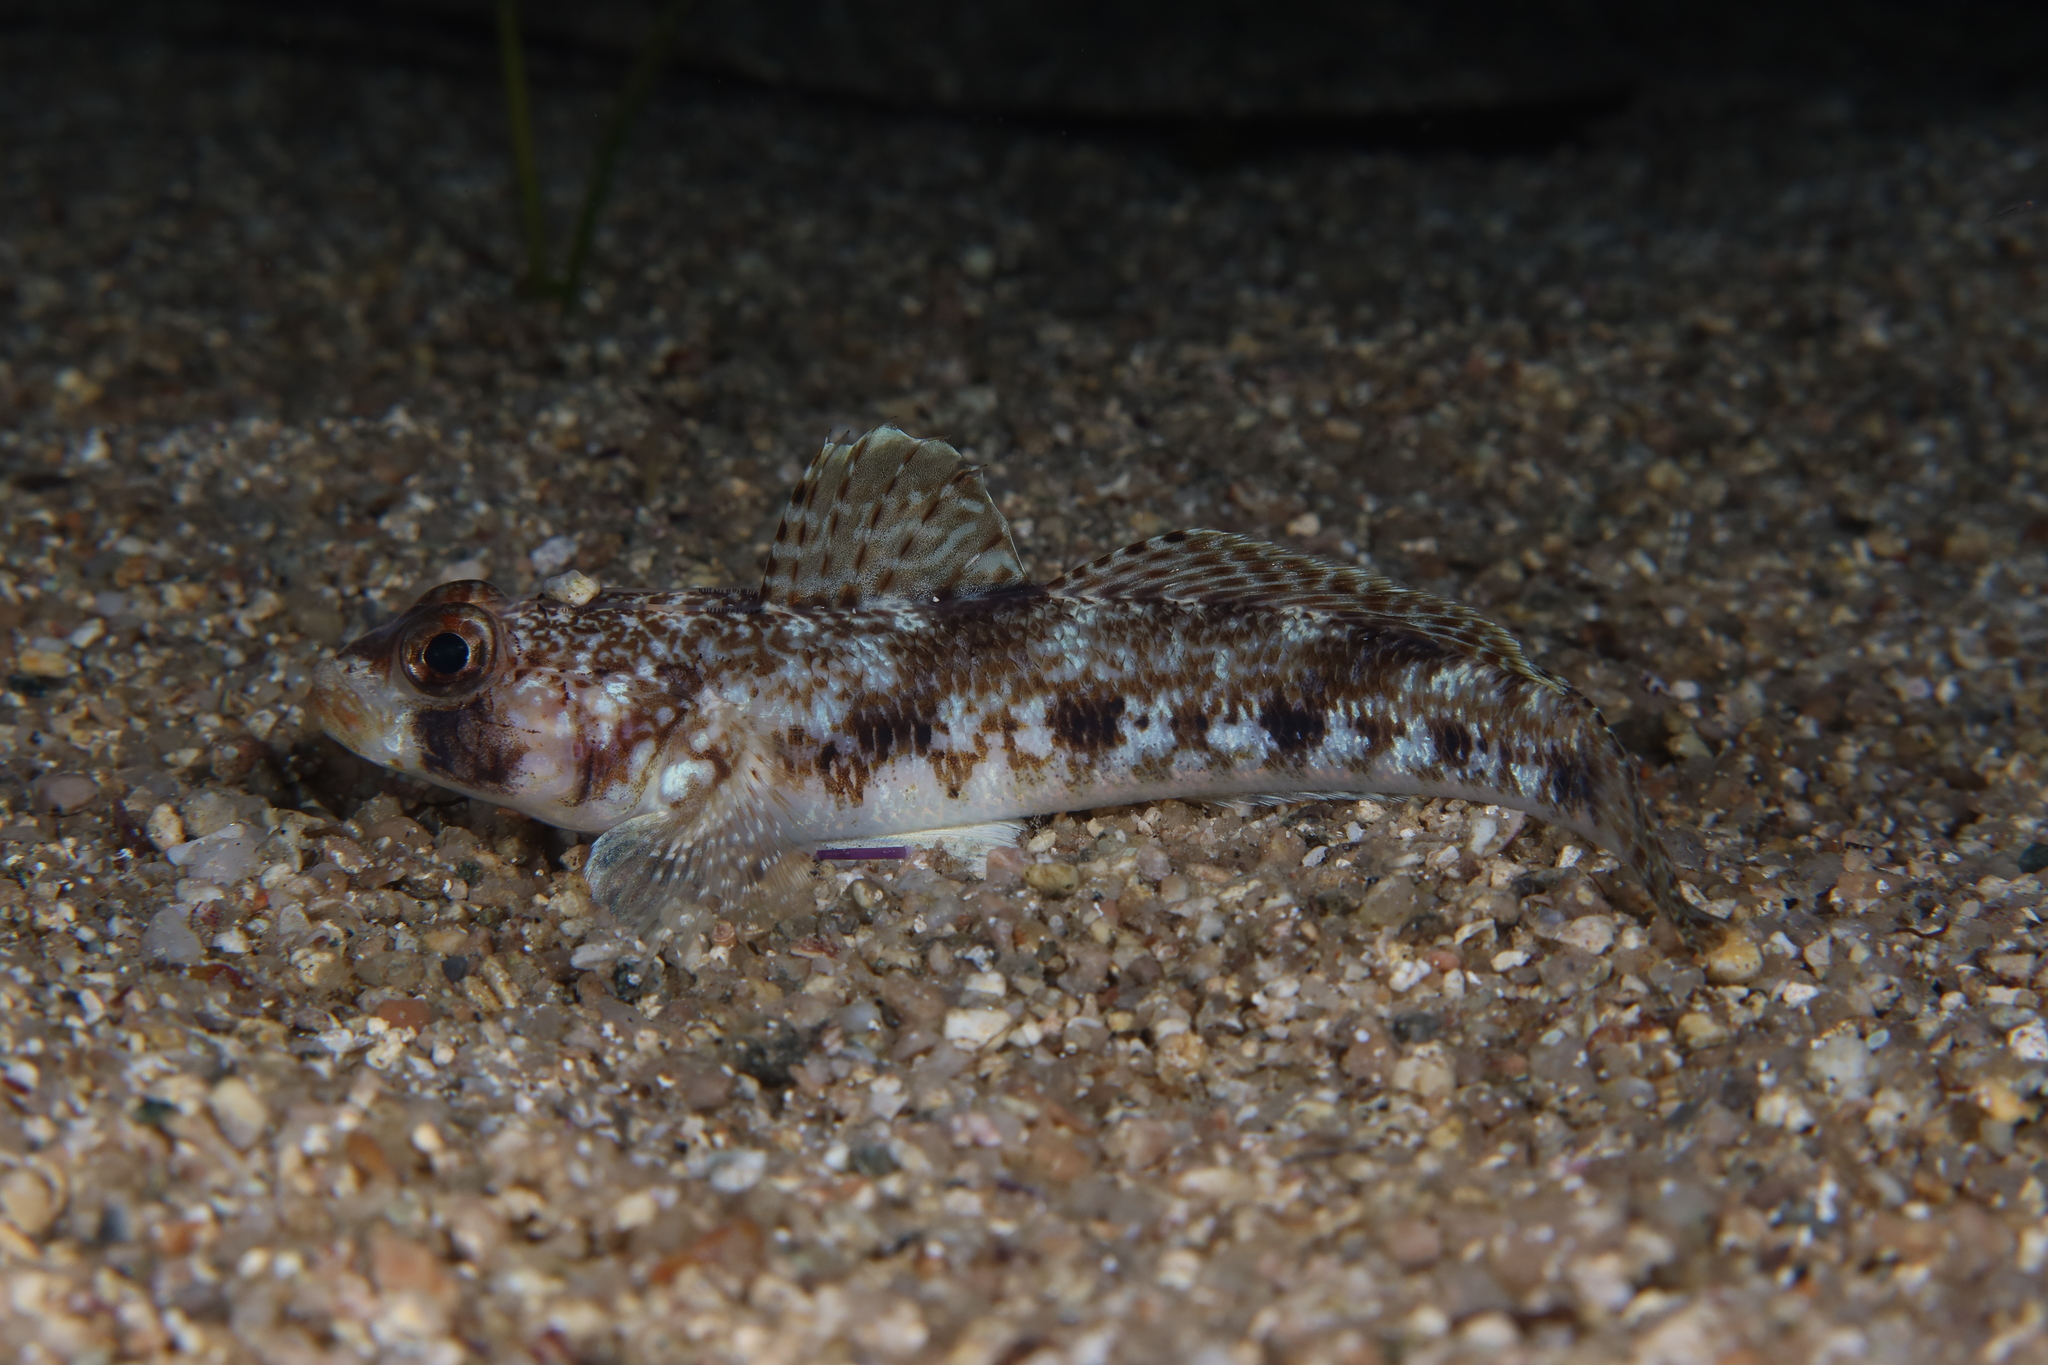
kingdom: Animalia
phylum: Chordata
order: Perciformes
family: Gobiidae
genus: Gobius
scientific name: Gobius geniporus
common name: Slender goby
